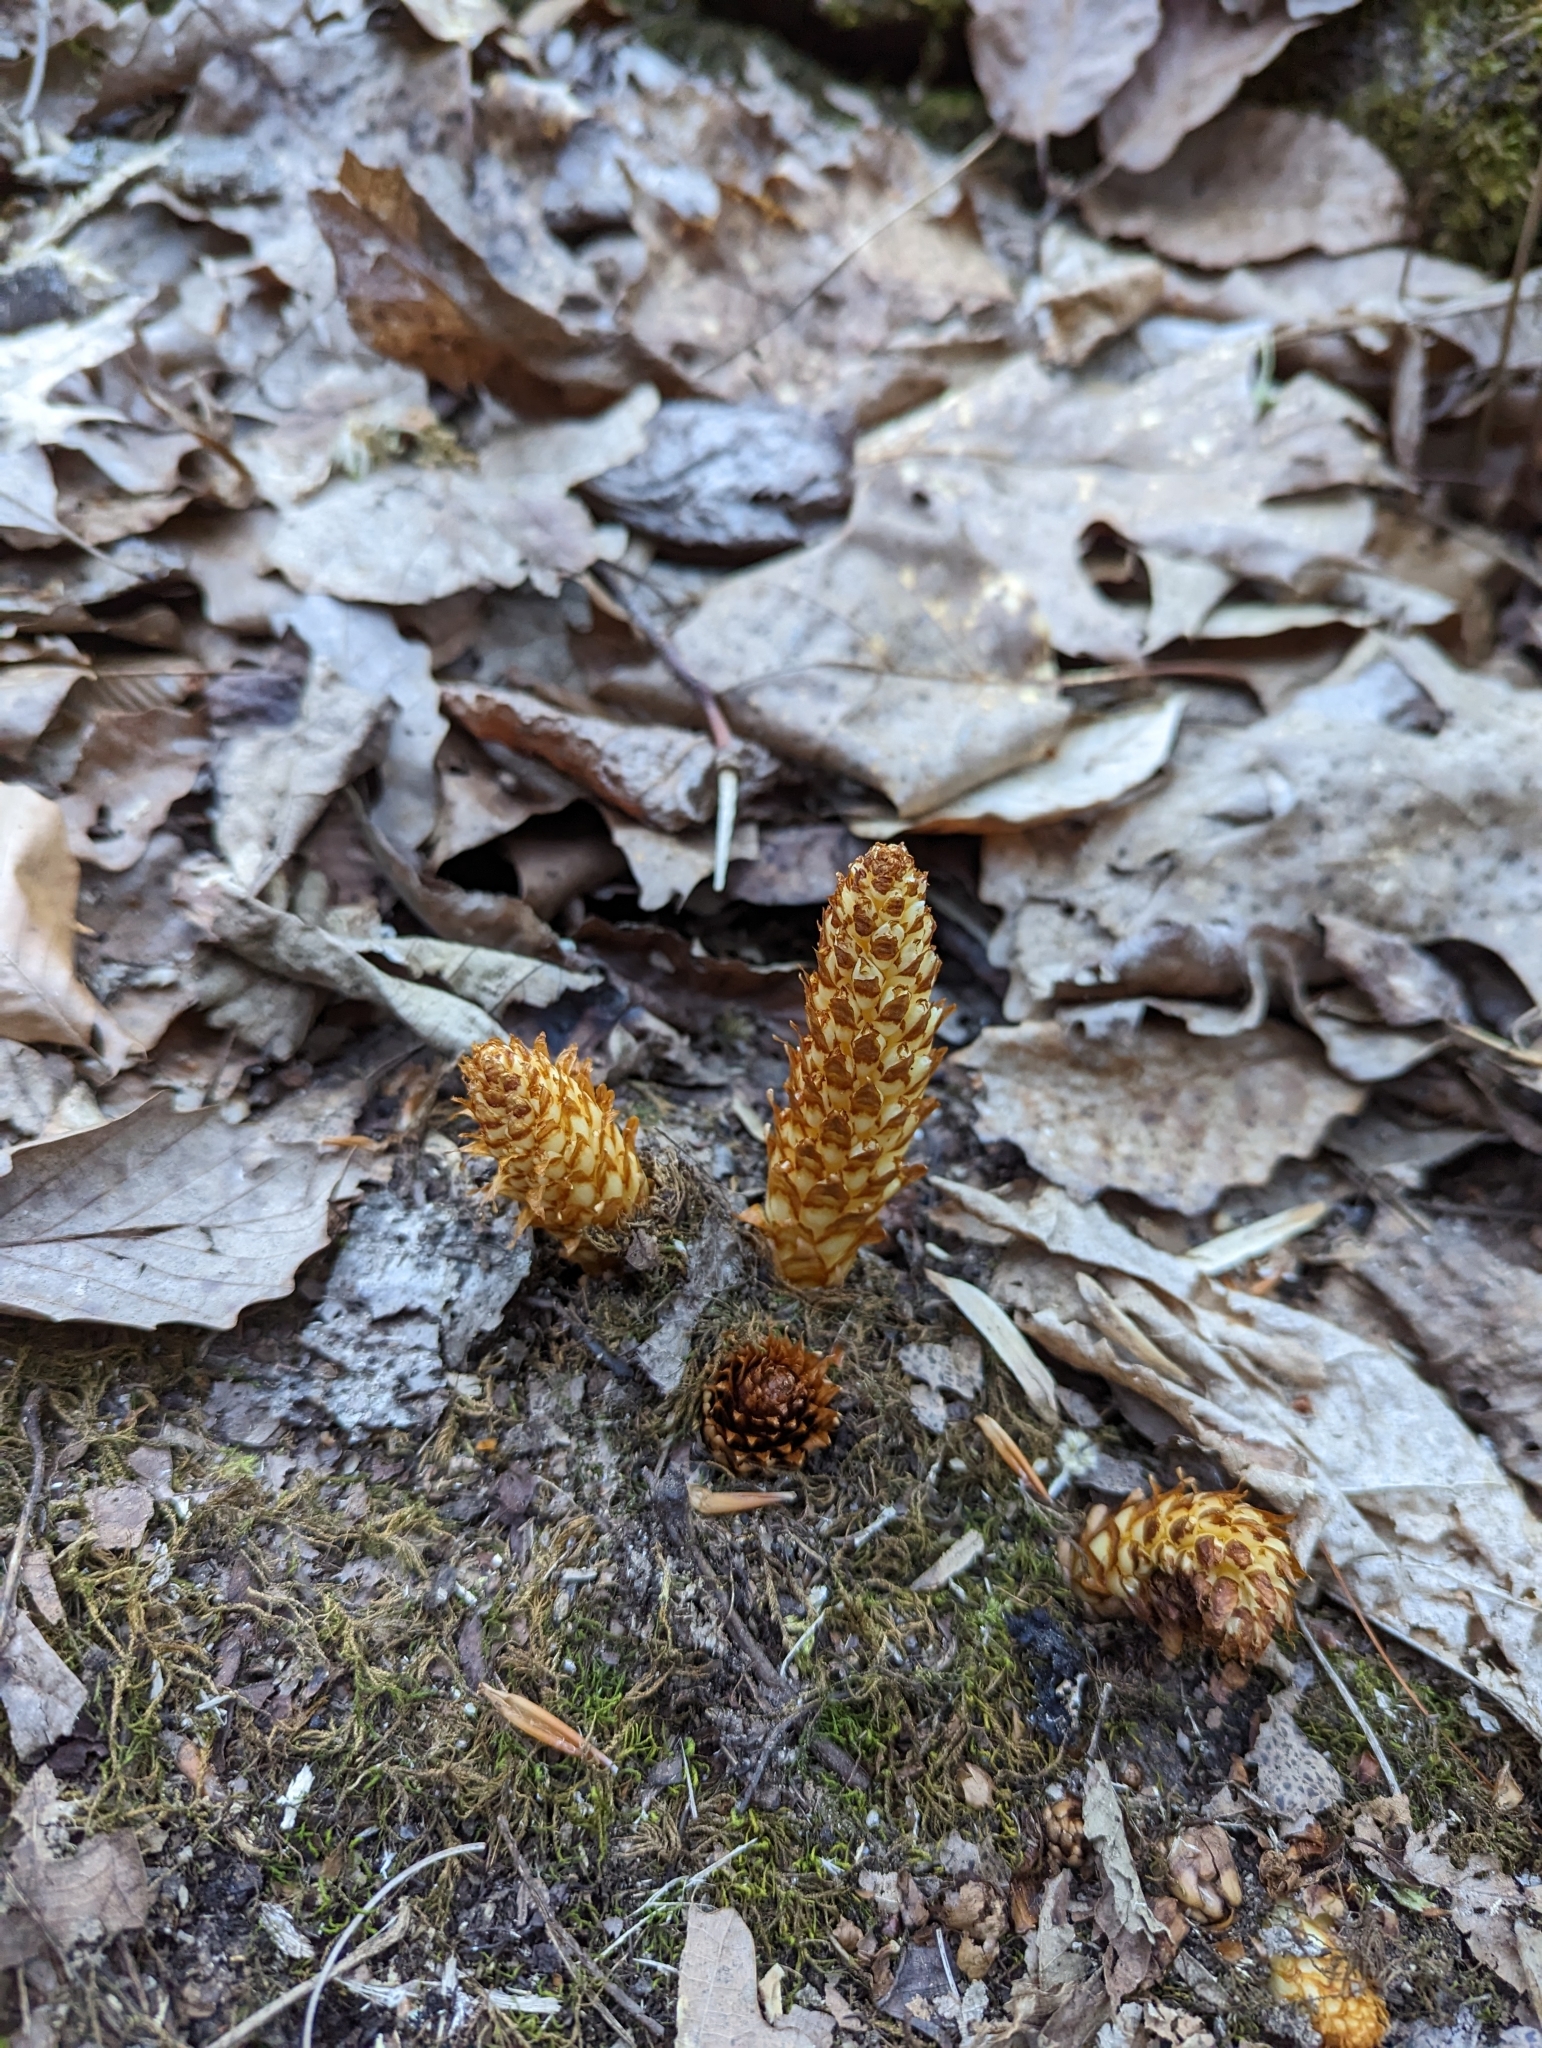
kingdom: Plantae
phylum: Tracheophyta
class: Magnoliopsida
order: Lamiales
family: Orobanchaceae
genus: Conopholis
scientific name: Conopholis americana
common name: American cancer-root
